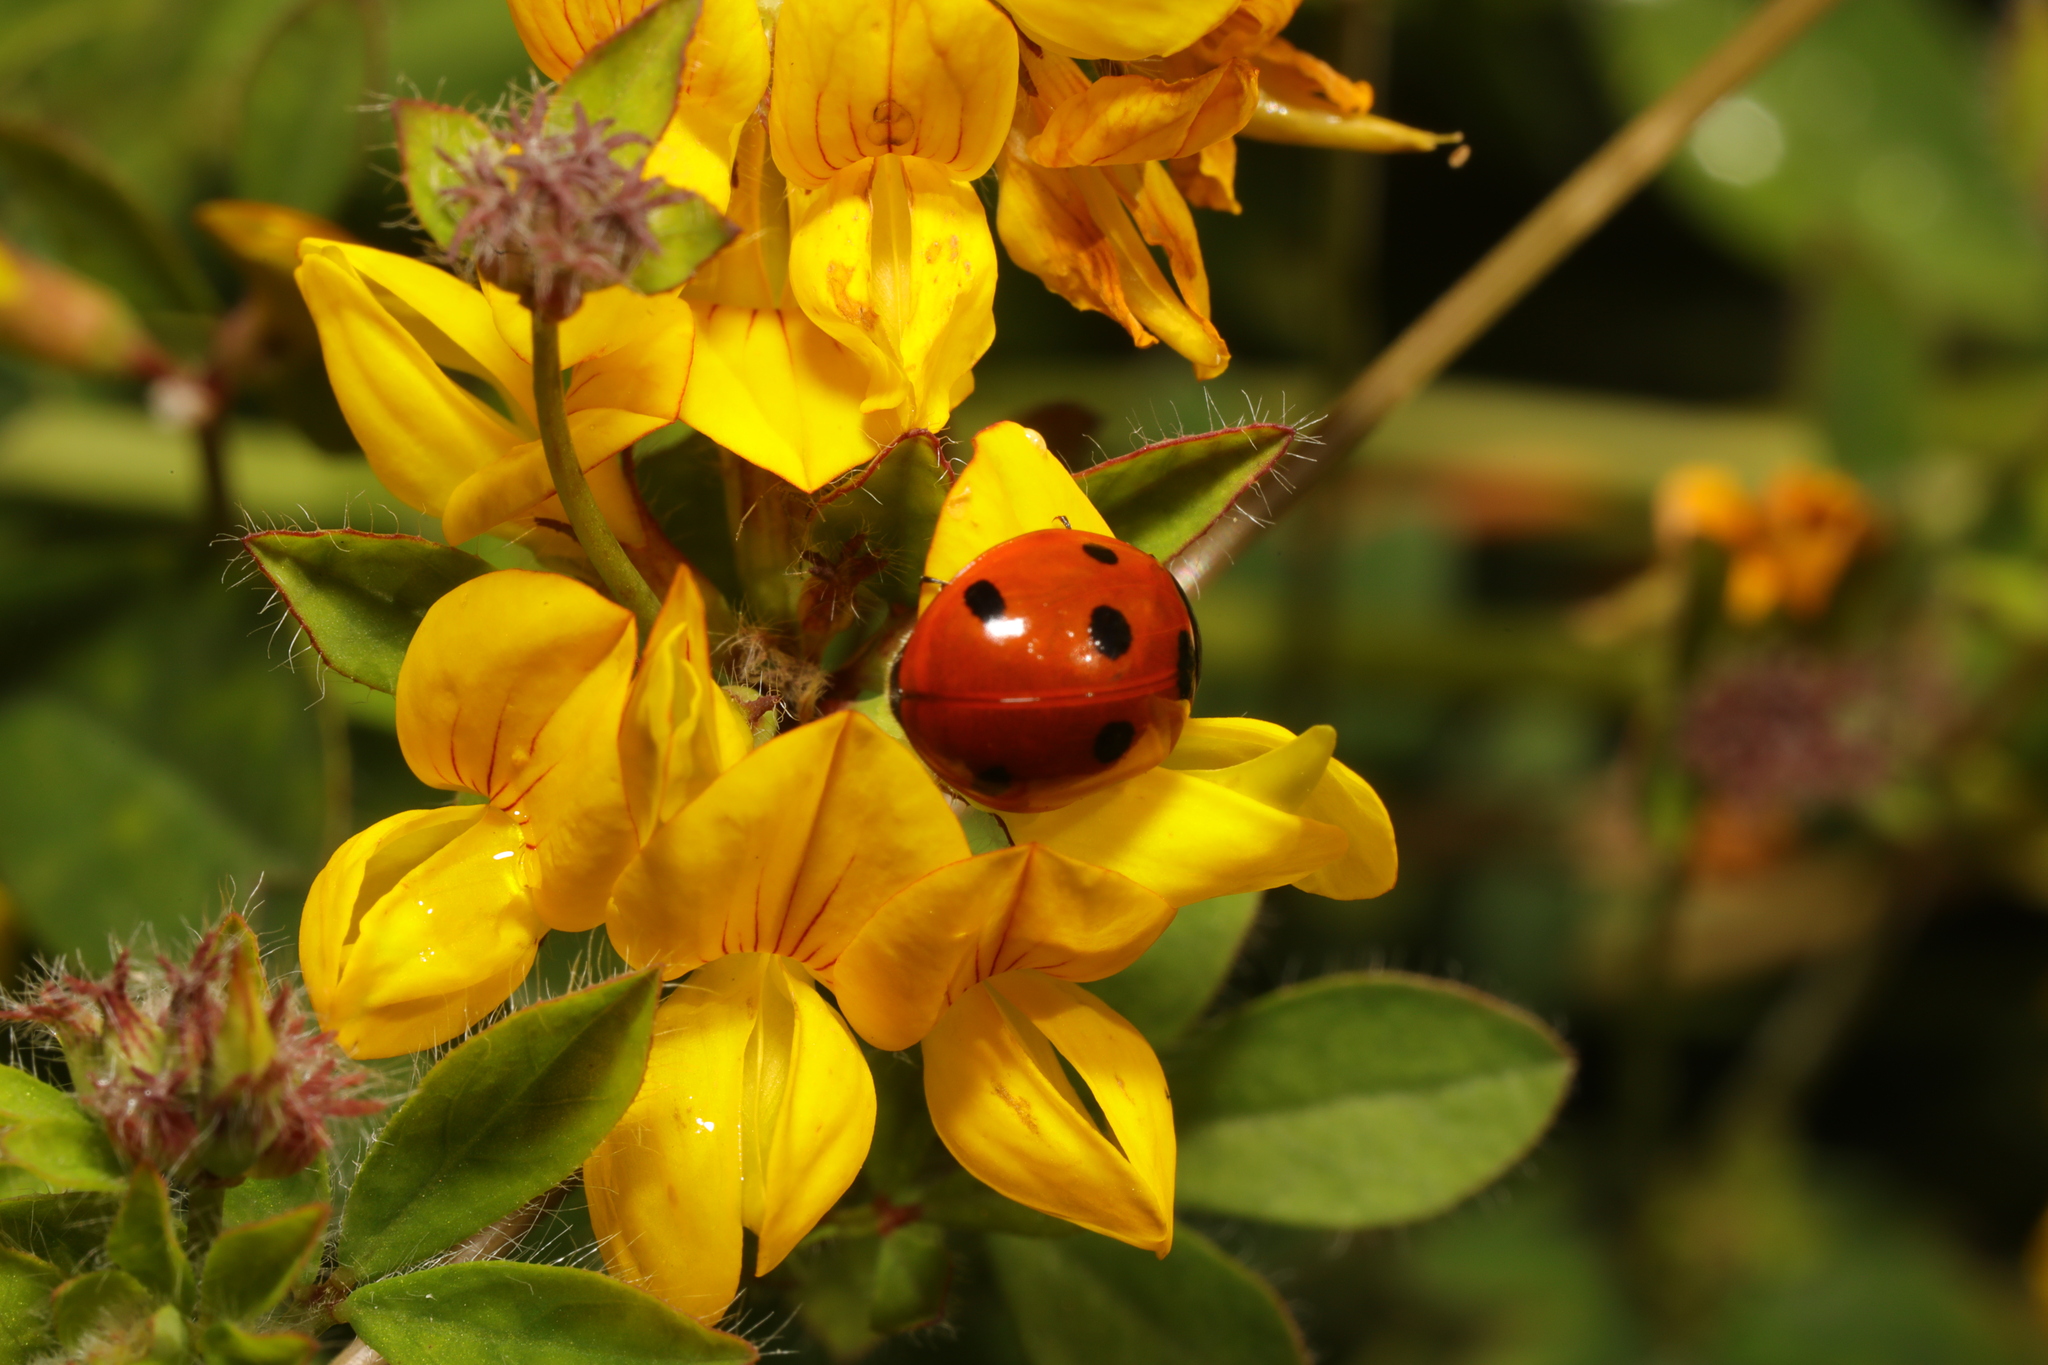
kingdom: Animalia
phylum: Arthropoda
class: Insecta
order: Coleoptera
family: Coccinellidae
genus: Coccinella
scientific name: Coccinella septempunctata
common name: Sevenspotted lady beetle
